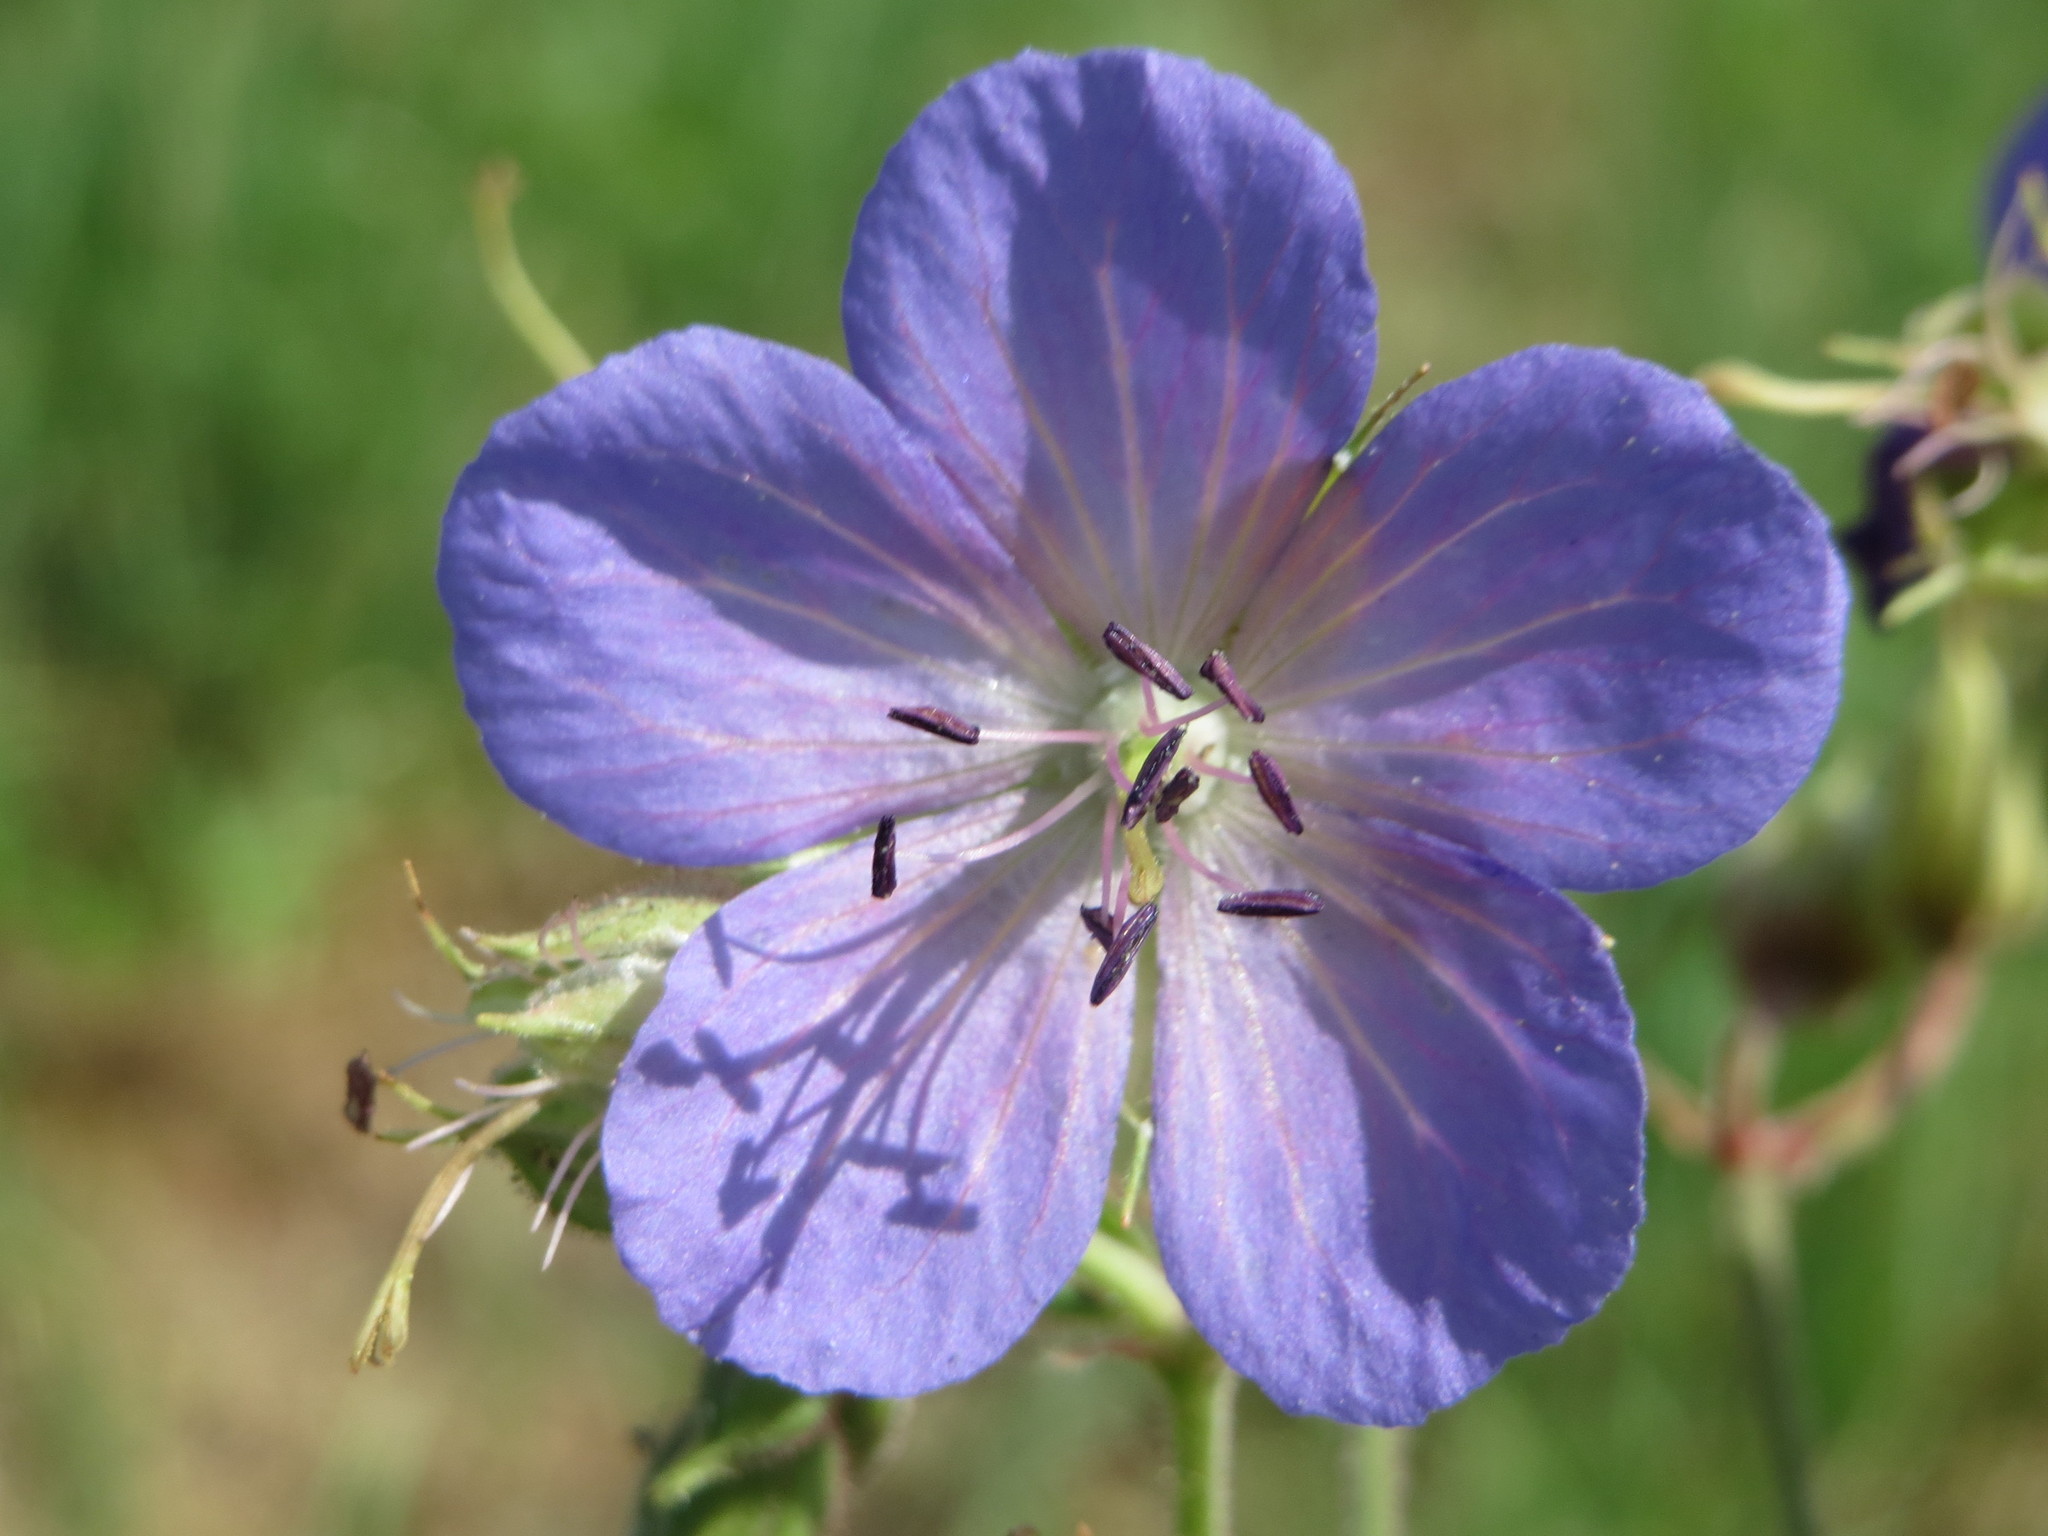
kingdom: Plantae
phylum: Tracheophyta
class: Magnoliopsida
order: Geraniales
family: Geraniaceae
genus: Geranium
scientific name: Geranium pratense
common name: Meadow crane's-bill
